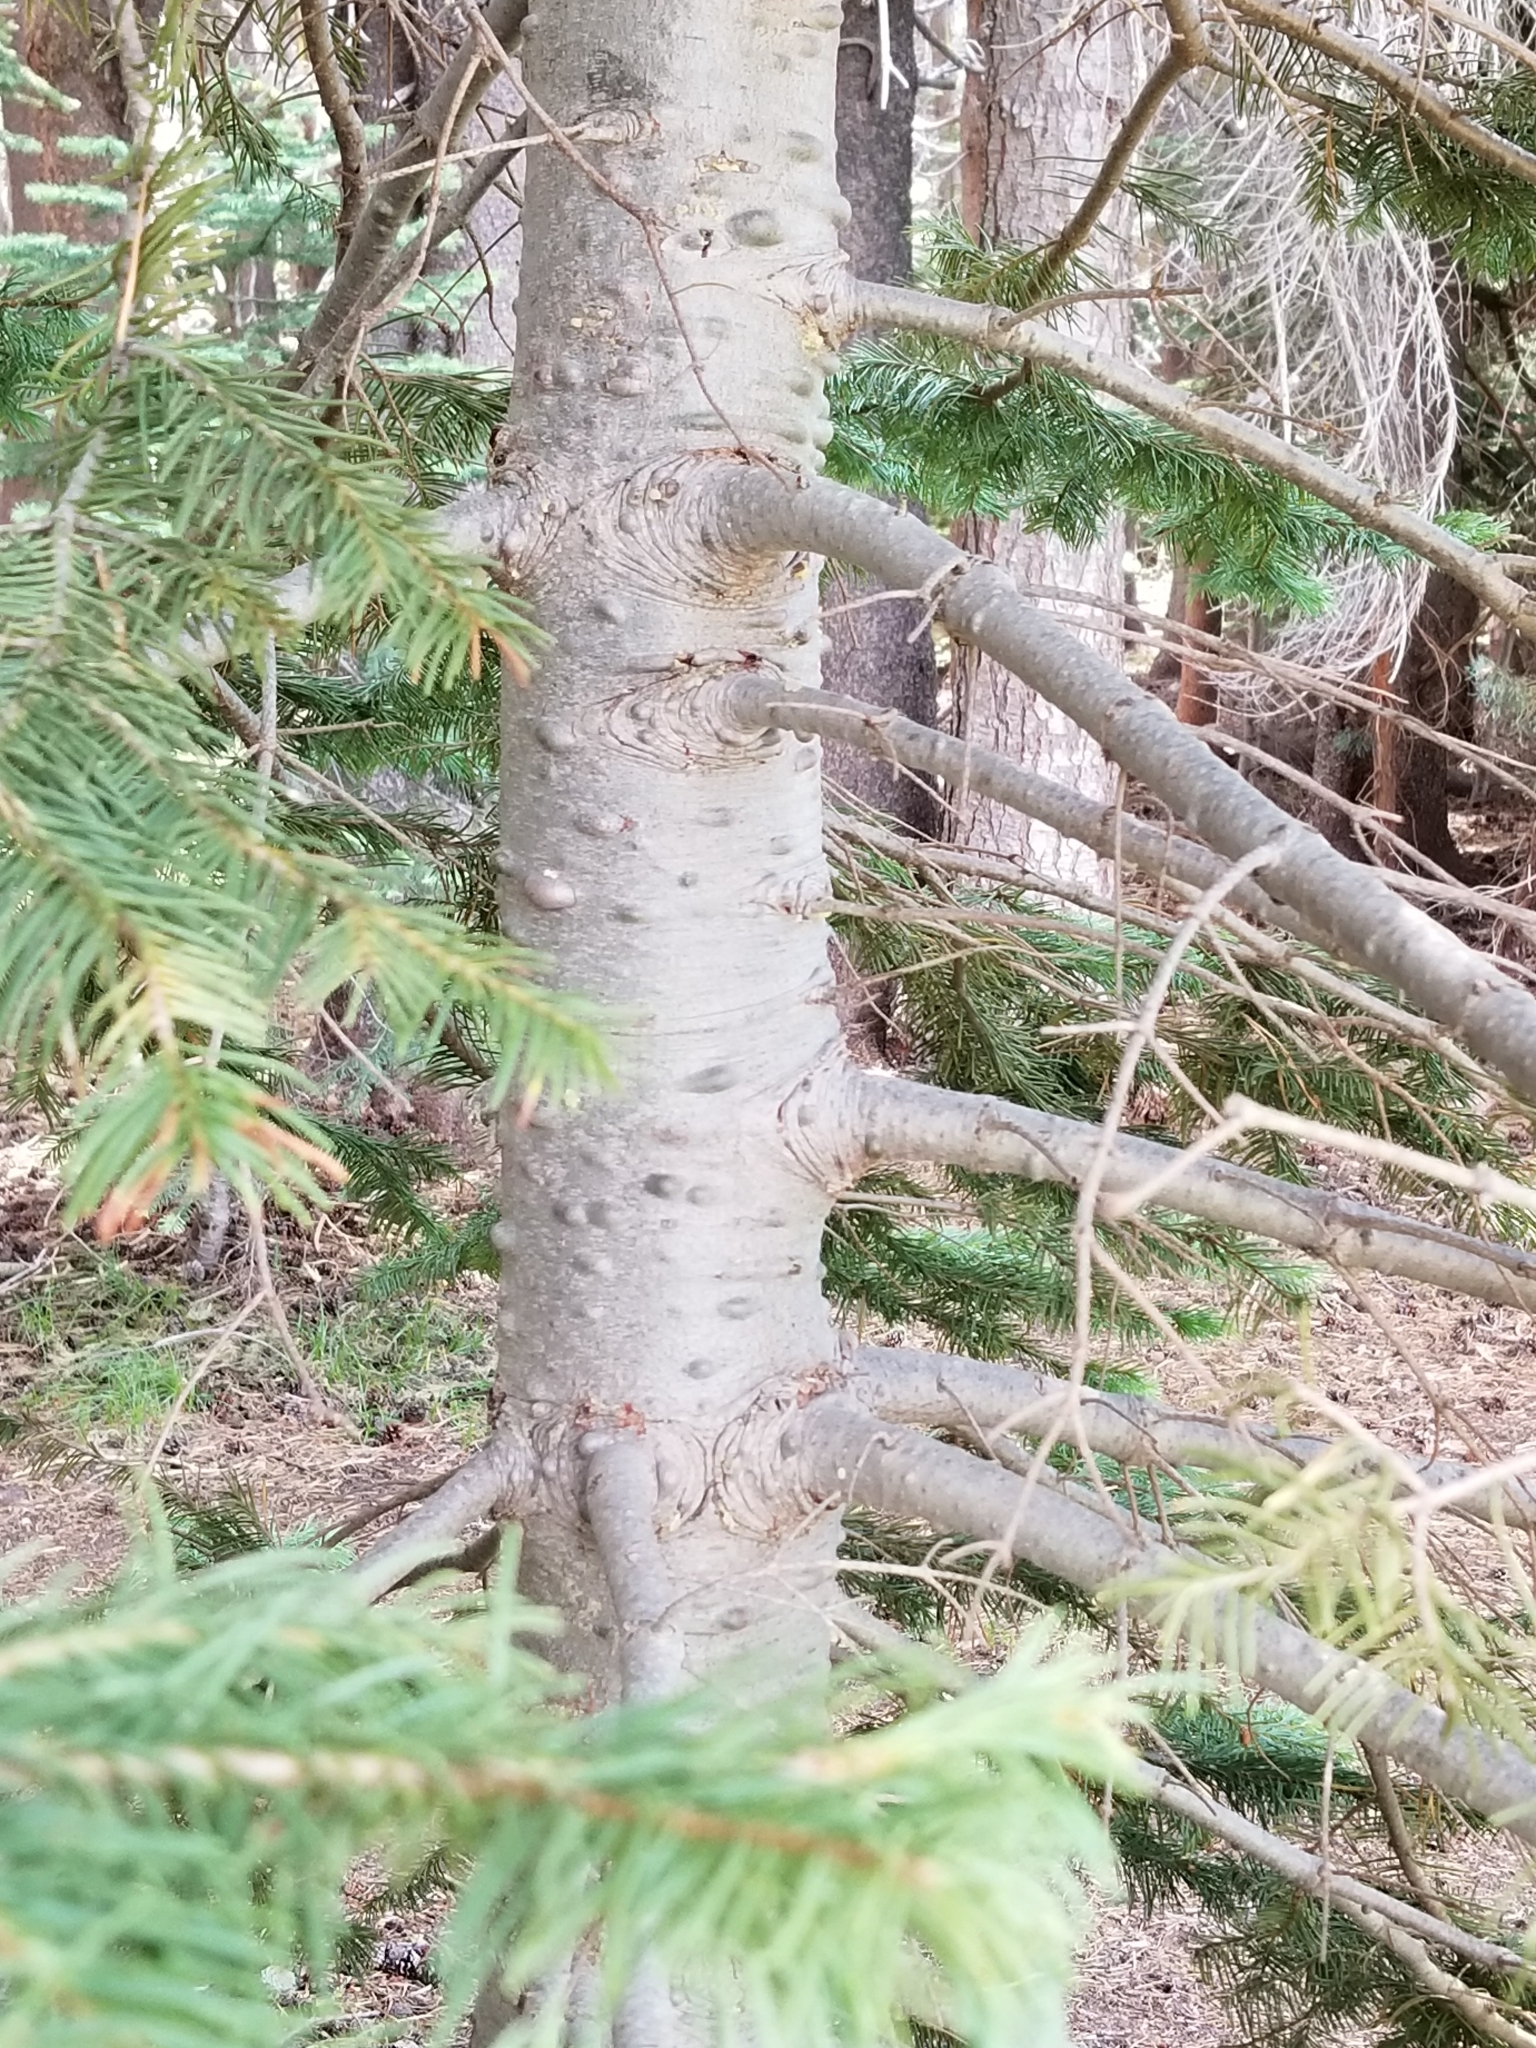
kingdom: Plantae
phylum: Tracheophyta
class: Pinopsida
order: Pinales
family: Pinaceae
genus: Abies
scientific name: Abies magnifica bis
